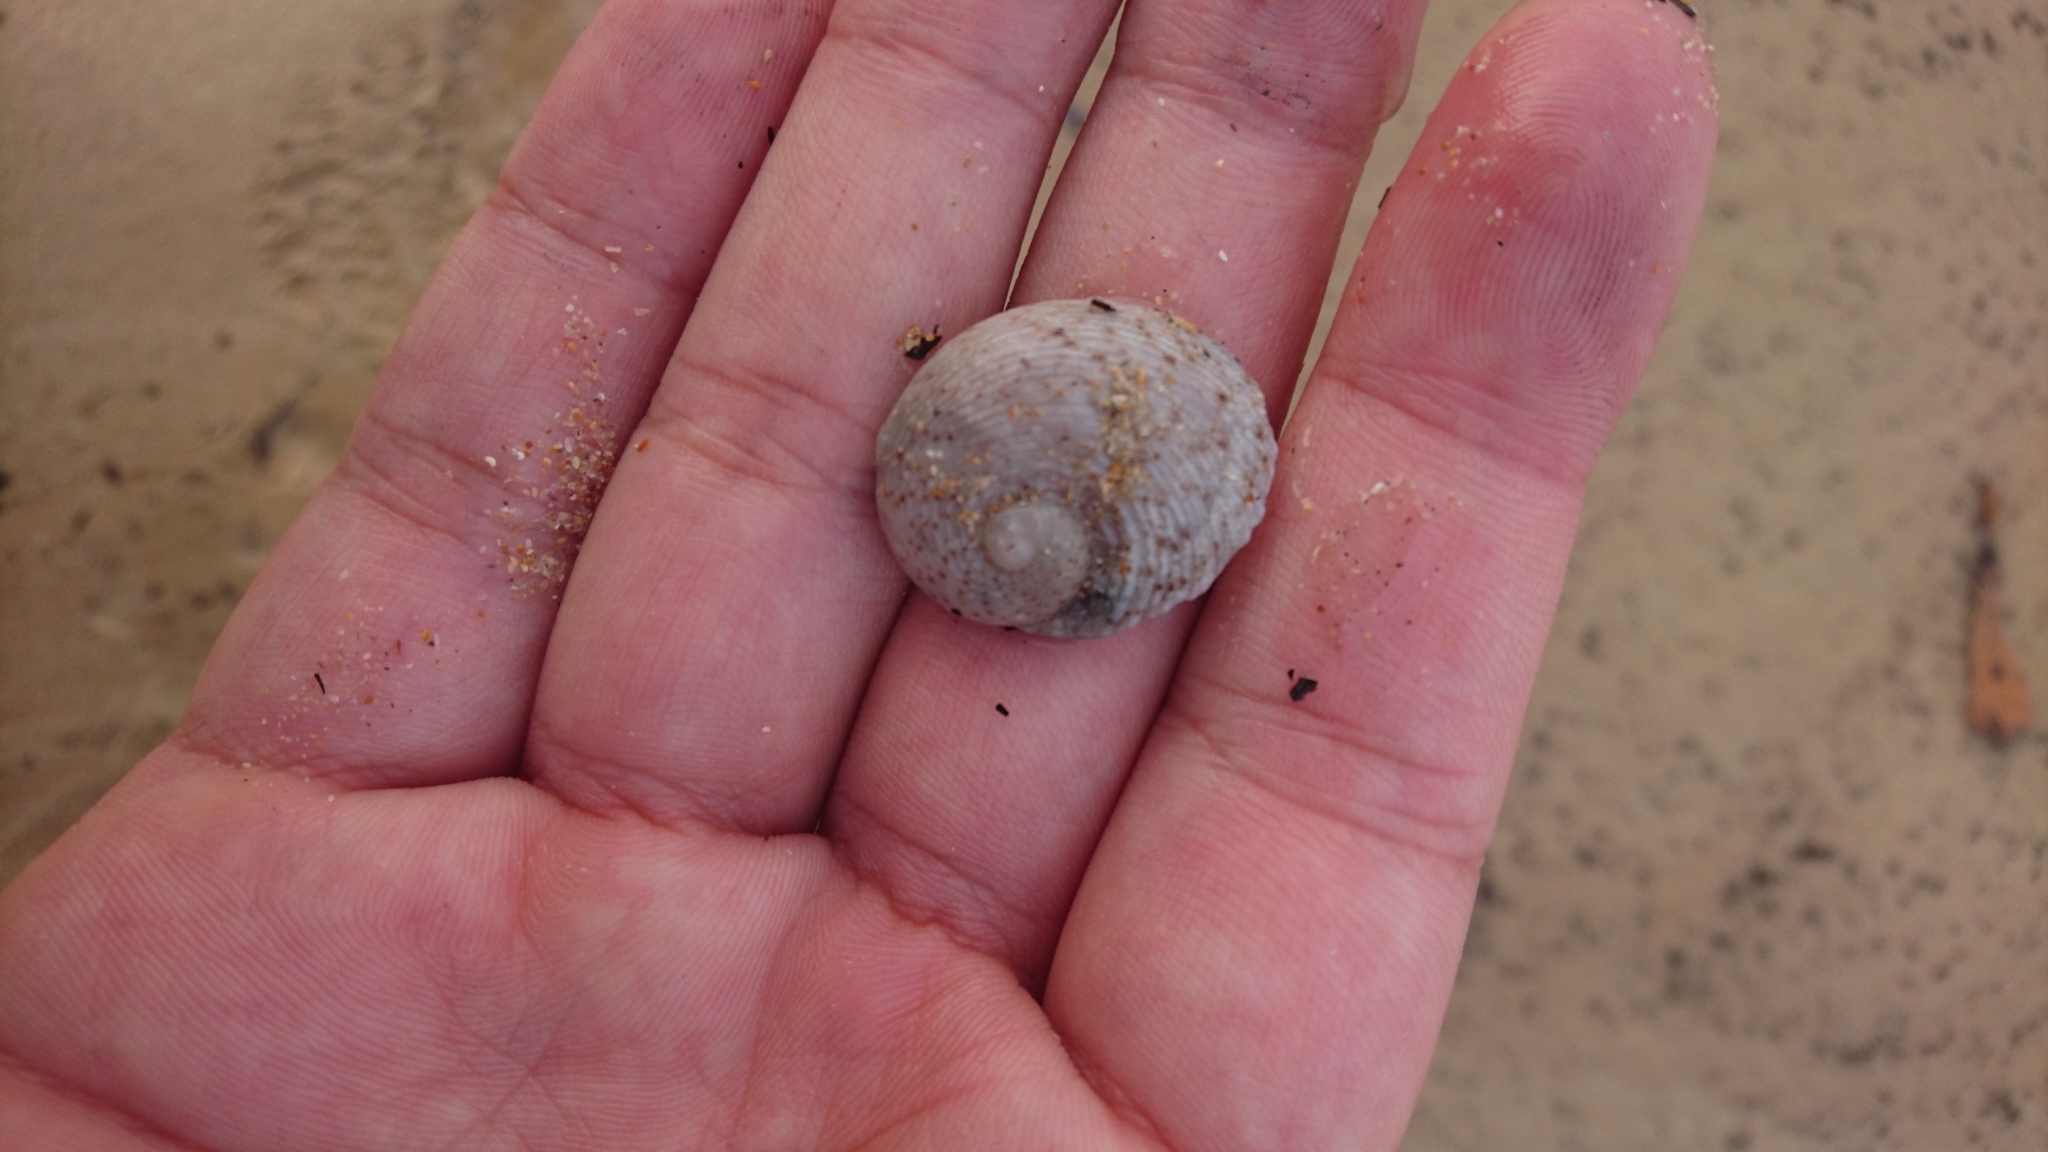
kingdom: Animalia
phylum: Mollusca
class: Gastropoda
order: Seguenziida
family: Chilodontaidae
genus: Granata
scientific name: Granata imbricata
